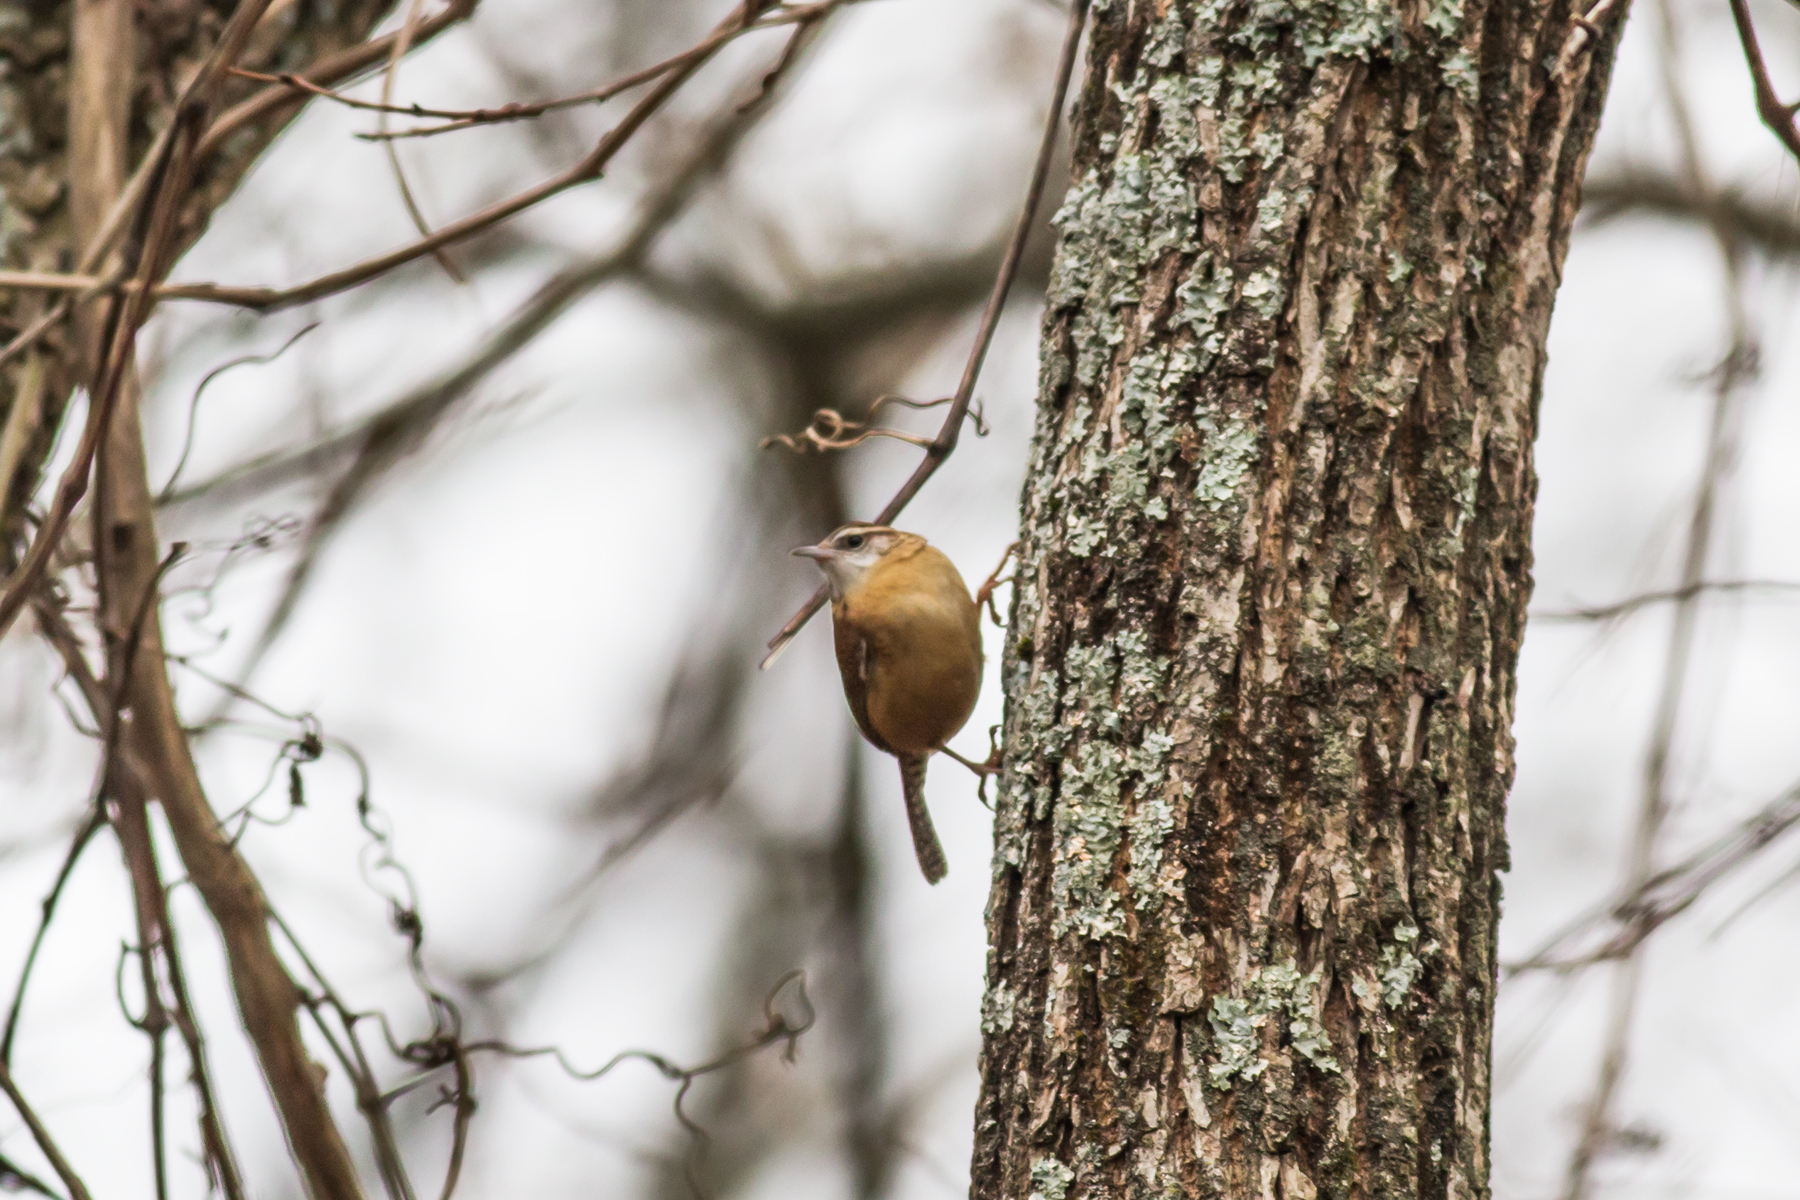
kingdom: Animalia
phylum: Chordata
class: Aves
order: Passeriformes
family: Troglodytidae
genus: Thryothorus
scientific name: Thryothorus ludovicianus
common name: Carolina wren
